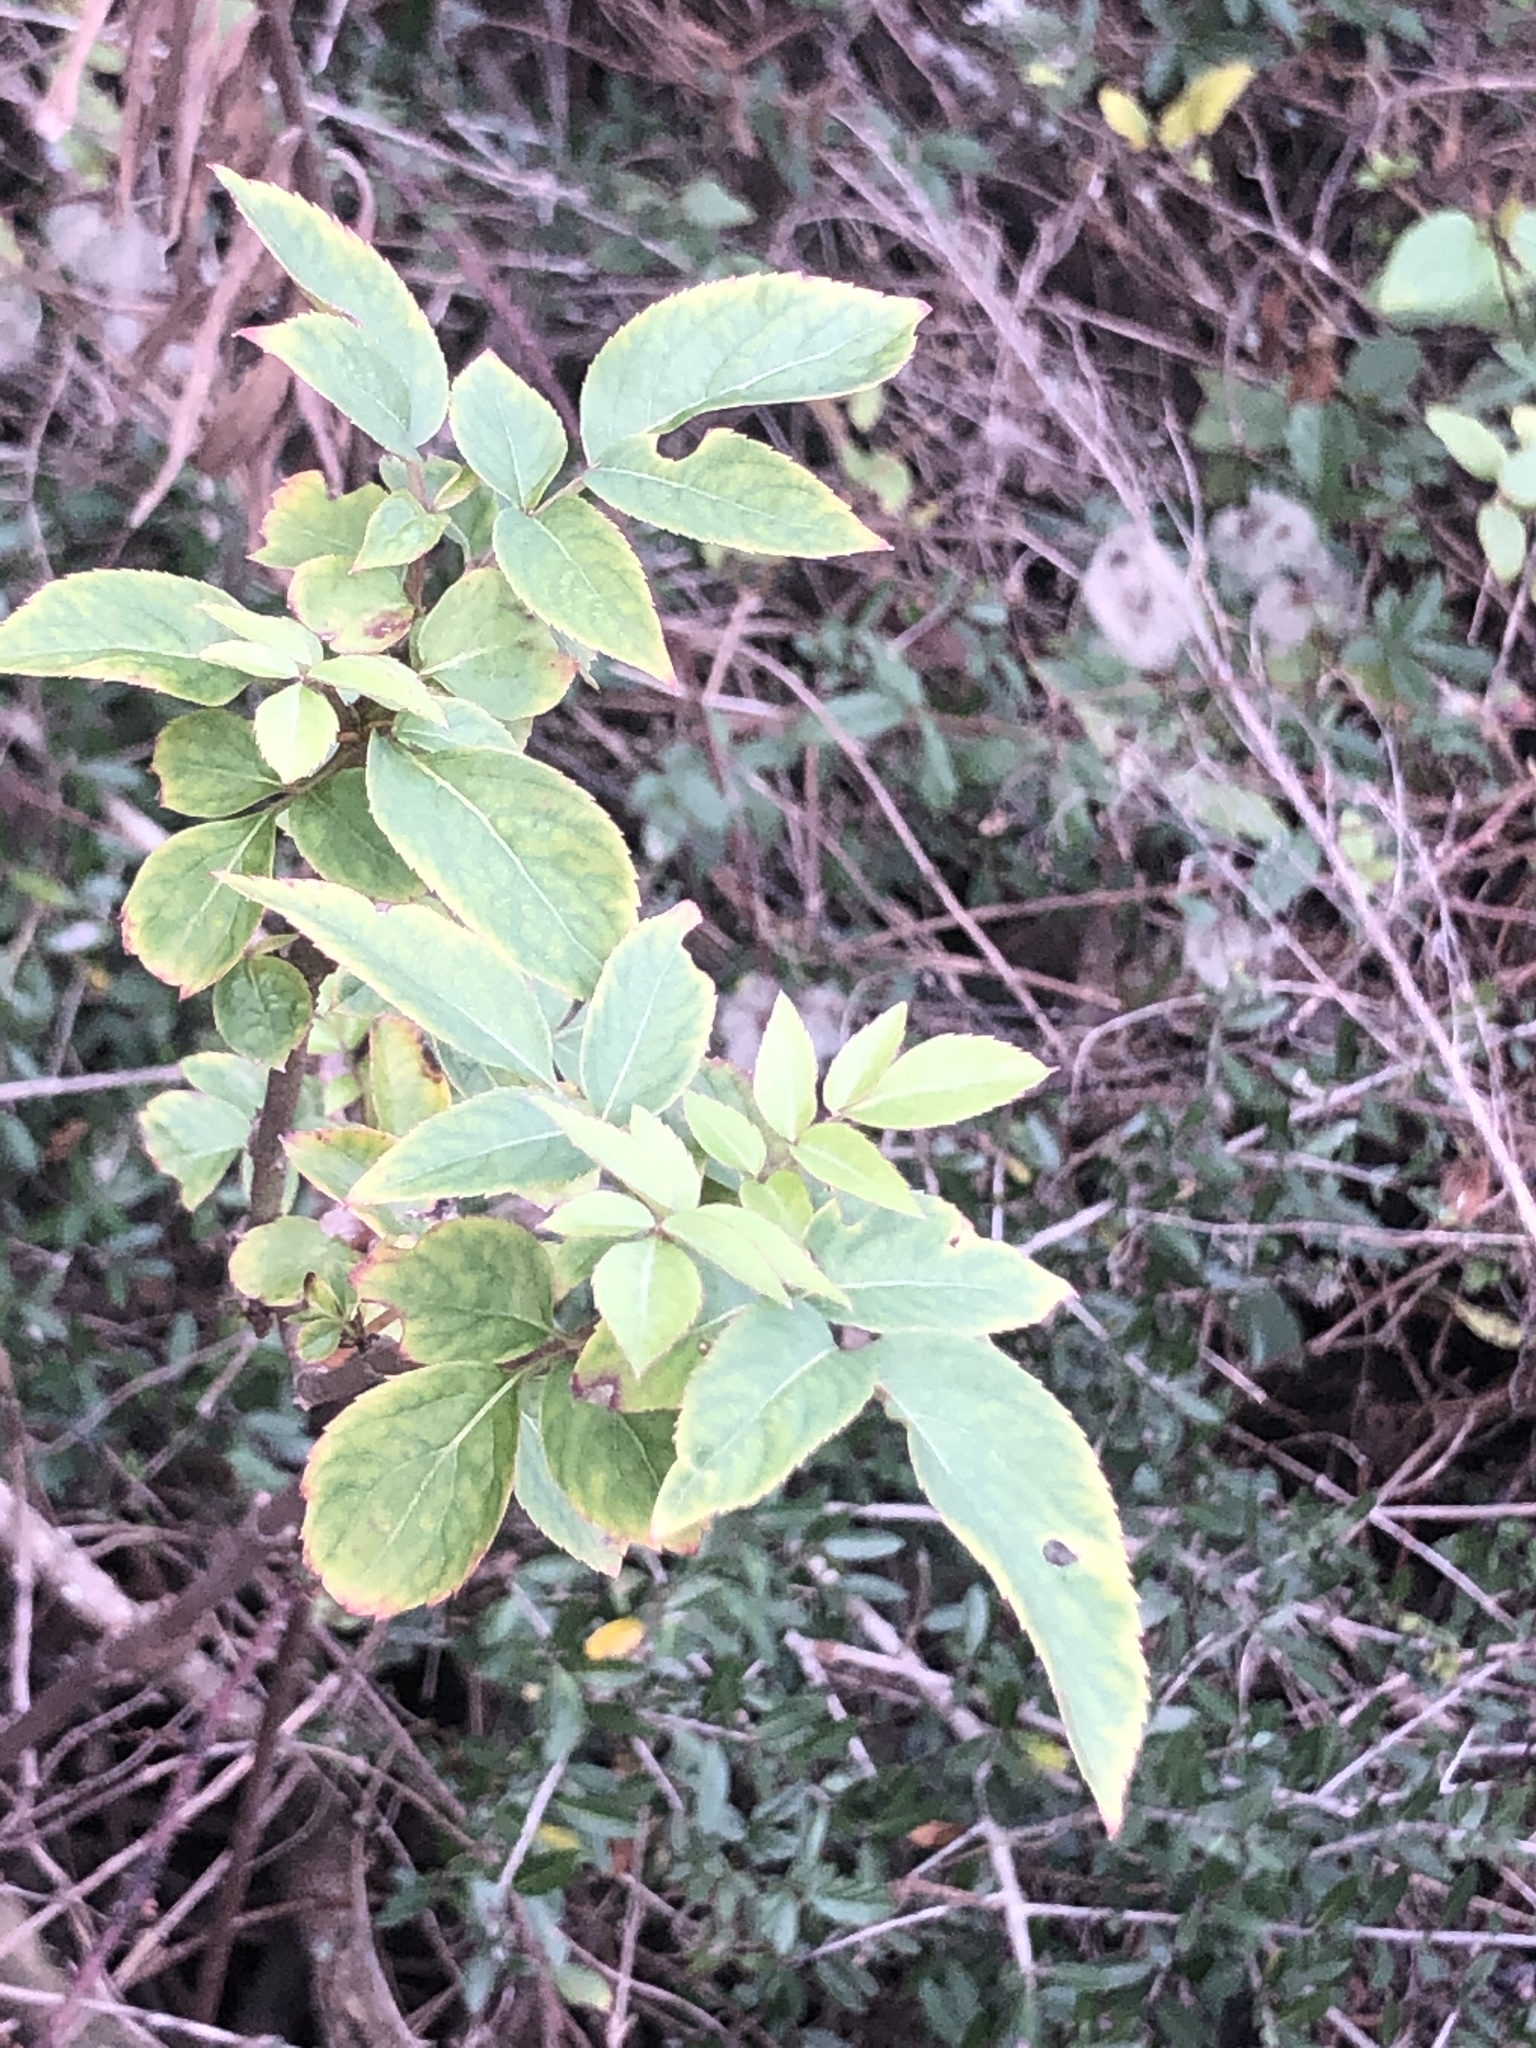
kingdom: Plantae
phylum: Tracheophyta
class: Magnoliopsida
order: Dipsacales
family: Viburnaceae
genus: Sambucus
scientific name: Sambucus canadensis
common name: American elder
